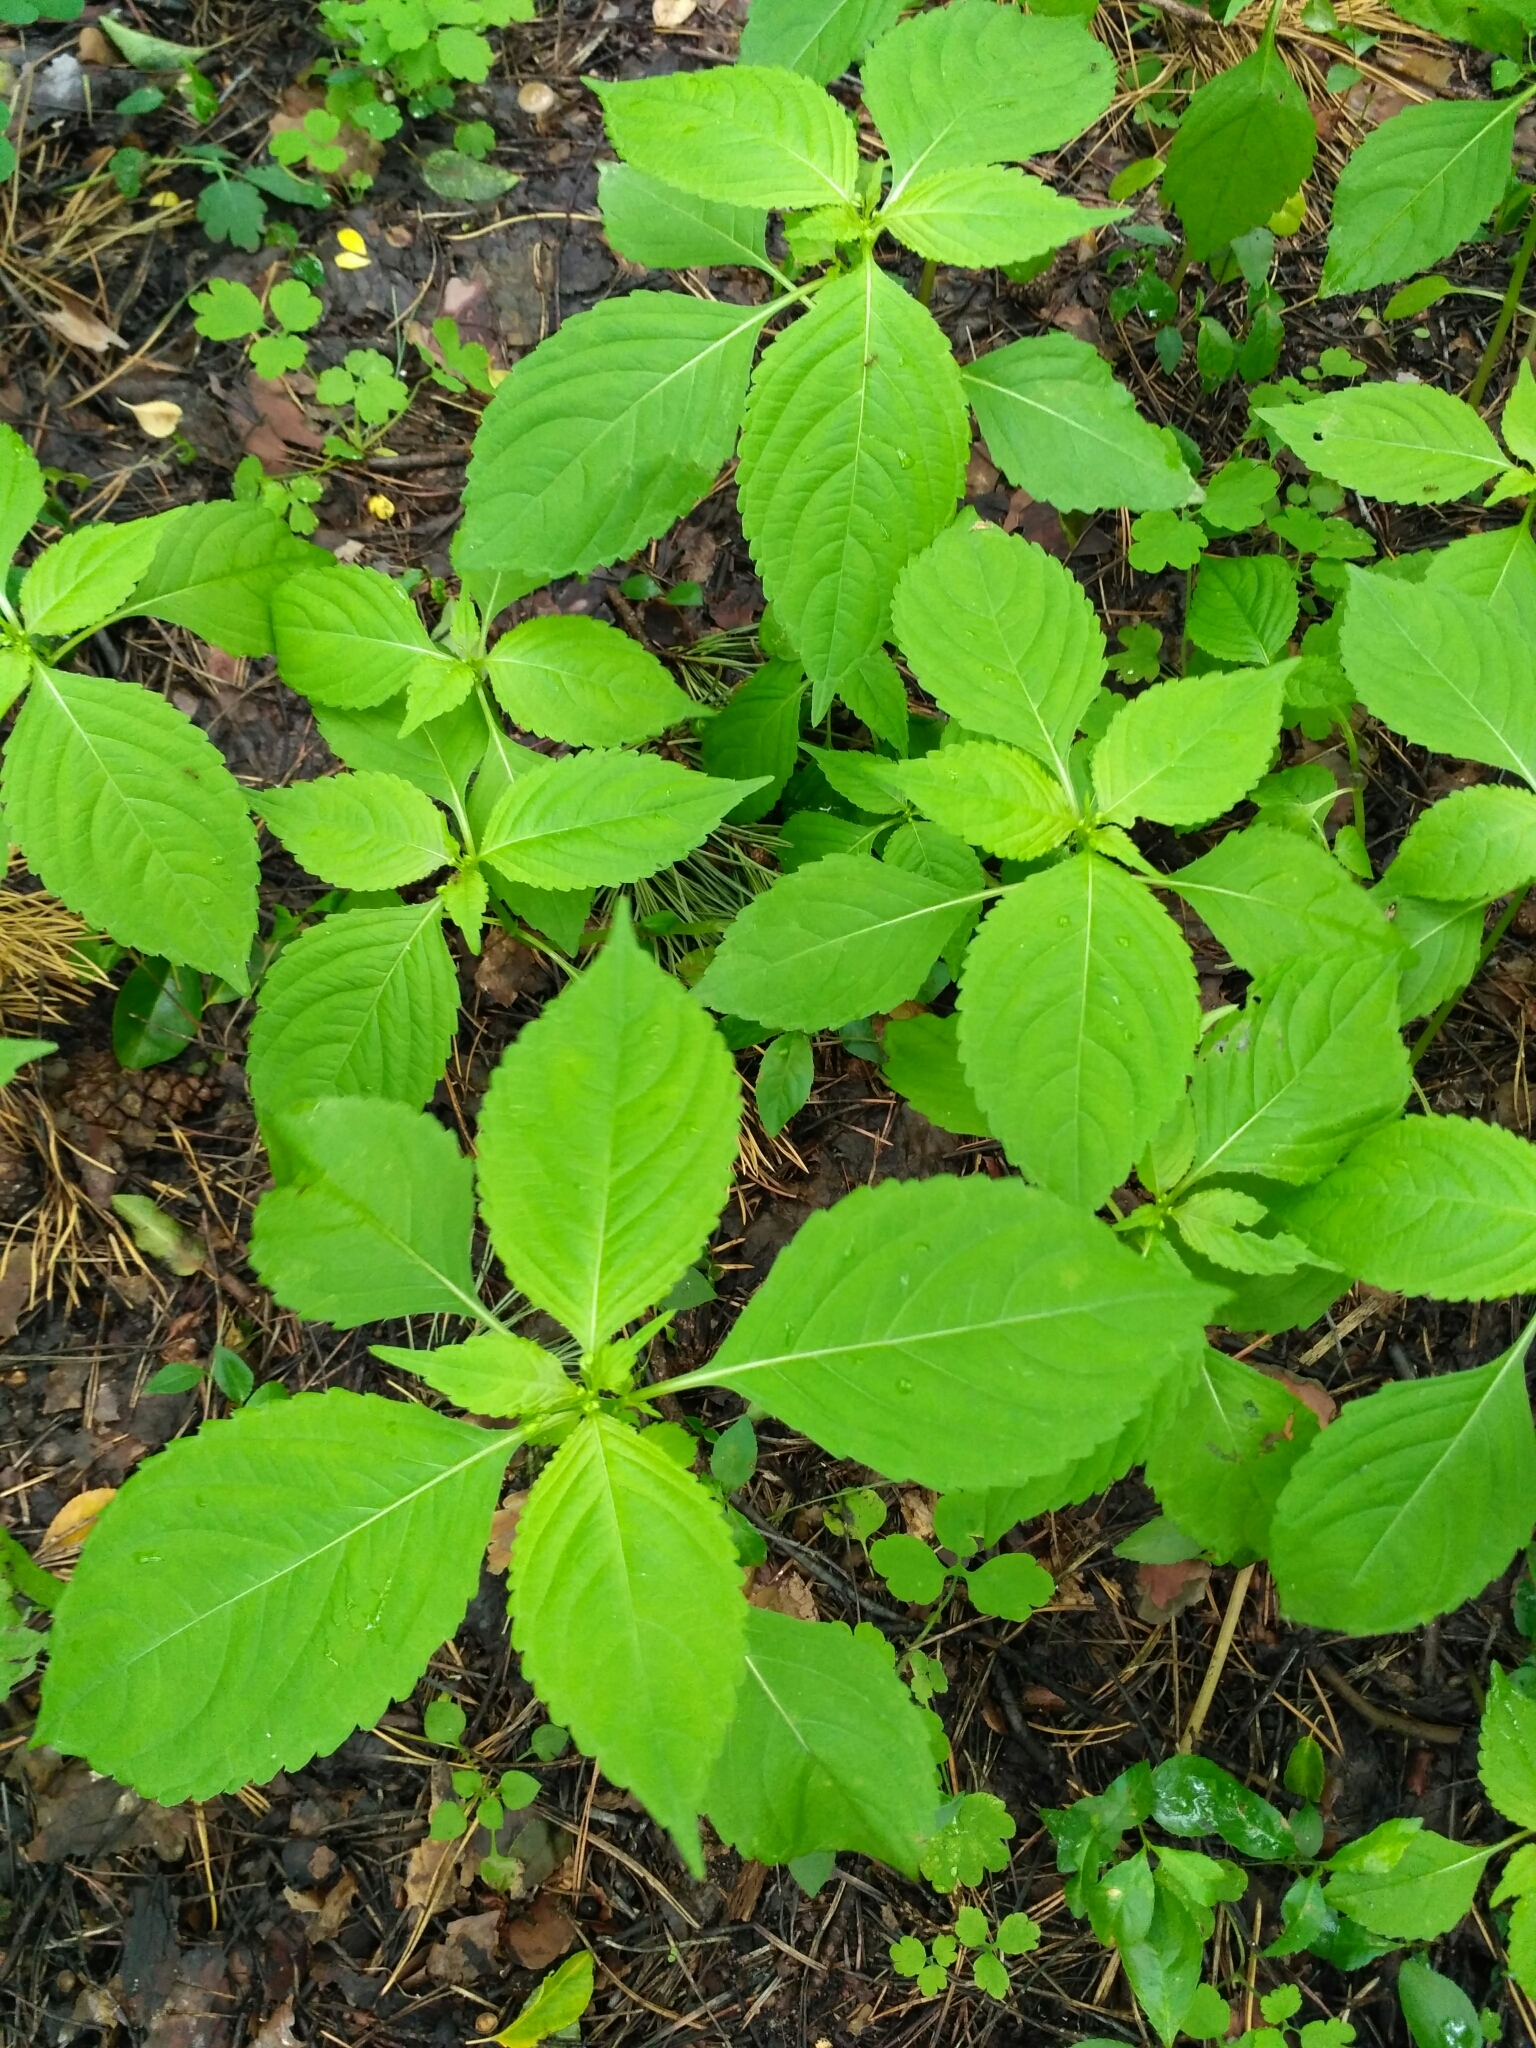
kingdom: Plantae
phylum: Tracheophyta
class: Magnoliopsida
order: Ericales
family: Balsaminaceae
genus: Impatiens
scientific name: Impatiens parviflora
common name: Small balsam
